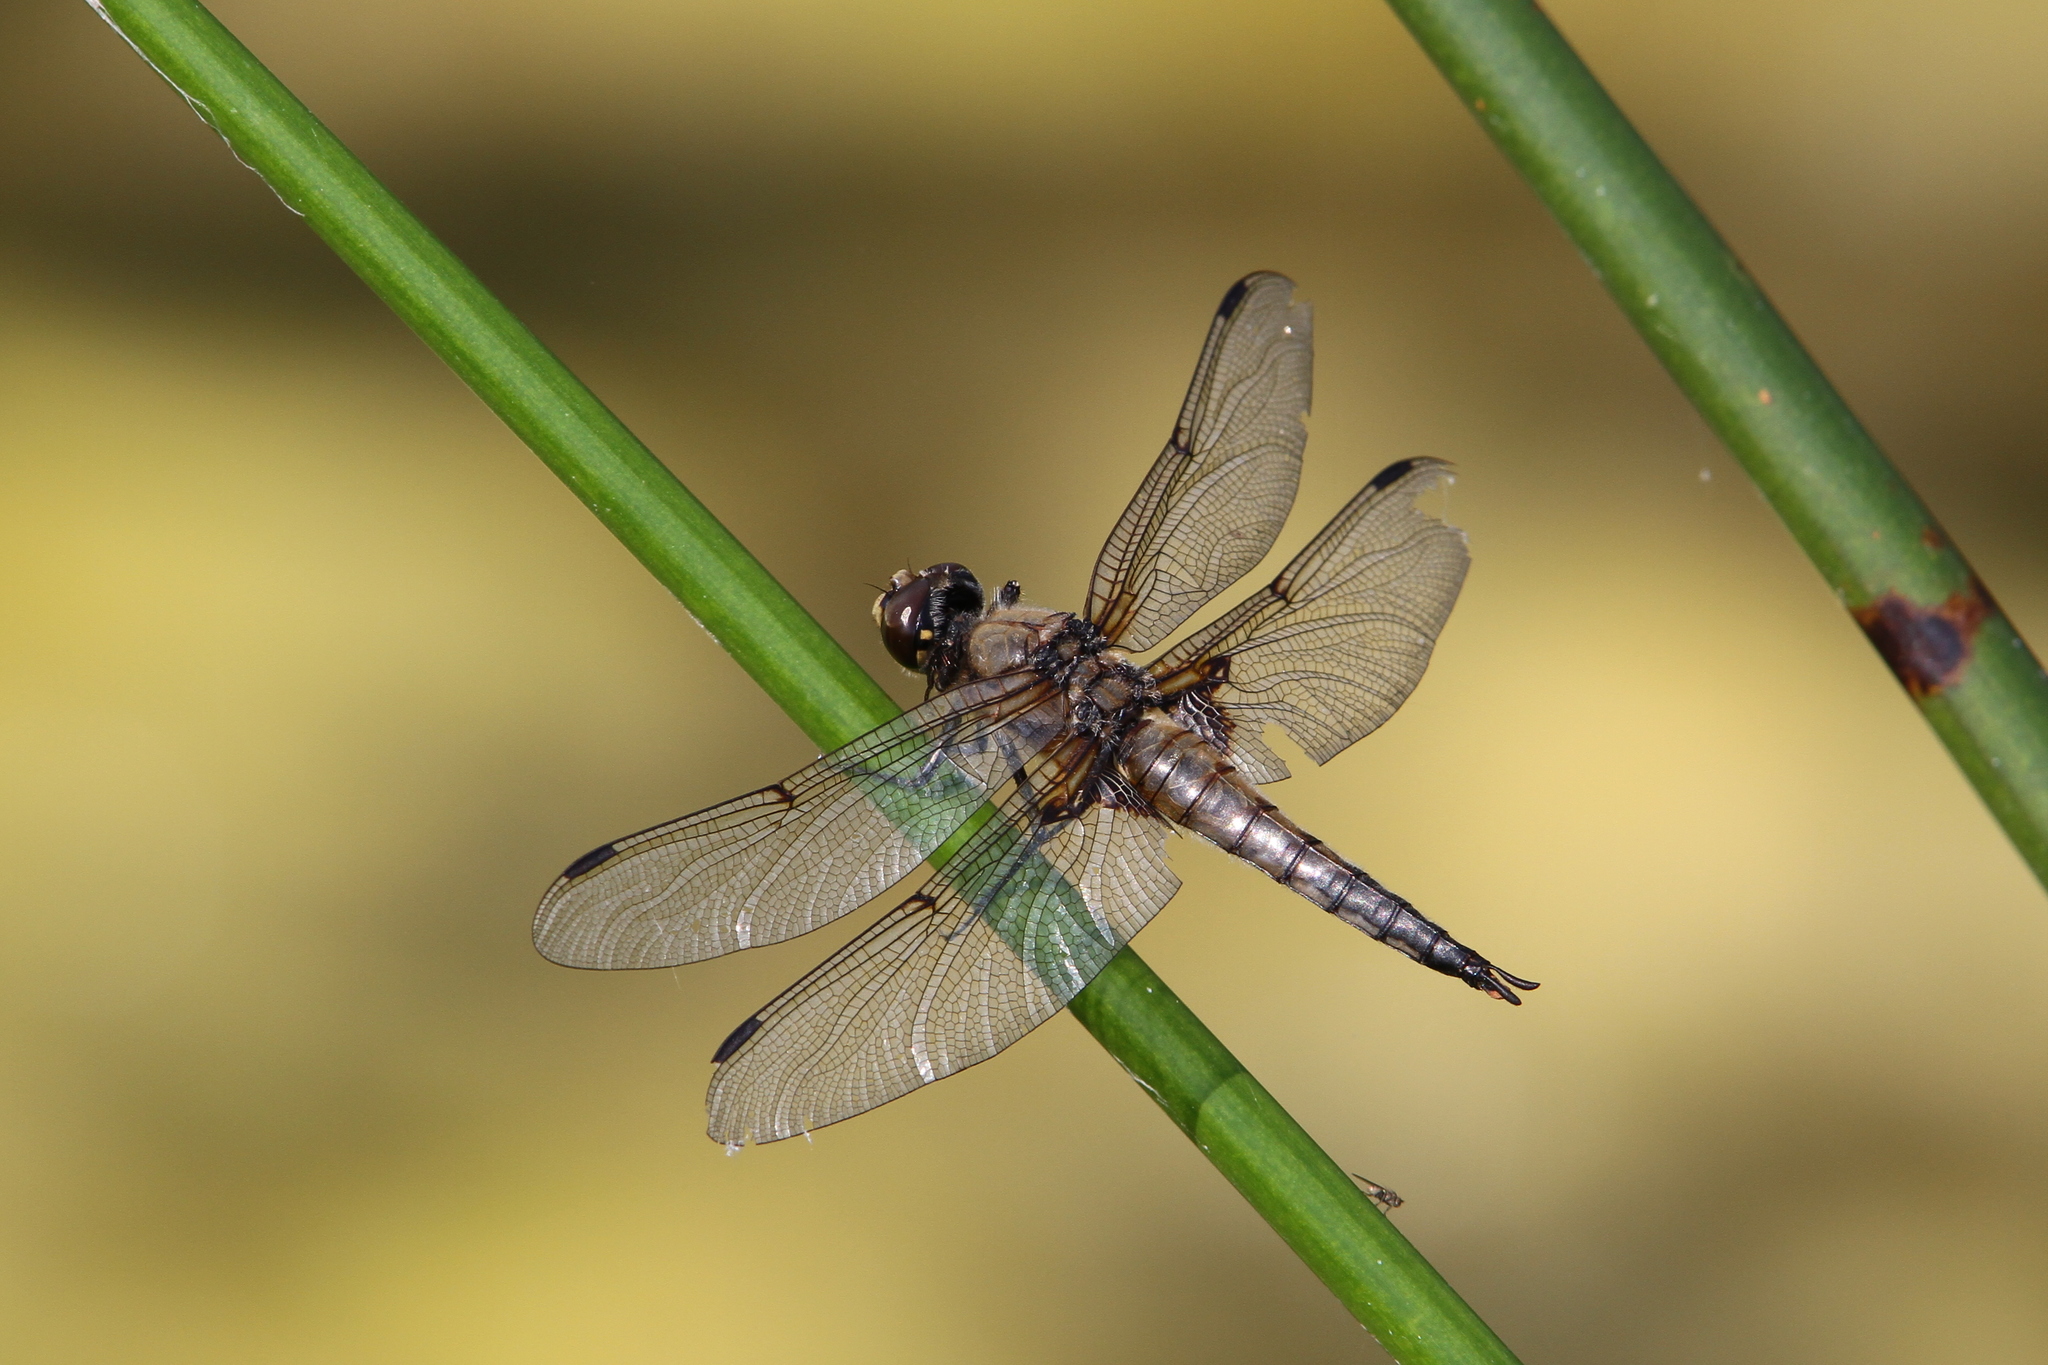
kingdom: Animalia
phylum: Arthropoda
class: Insecta
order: Odonata
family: Libellulidae
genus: Libellula
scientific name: Libellula quadrimaculata
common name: Four-spotted chaser
